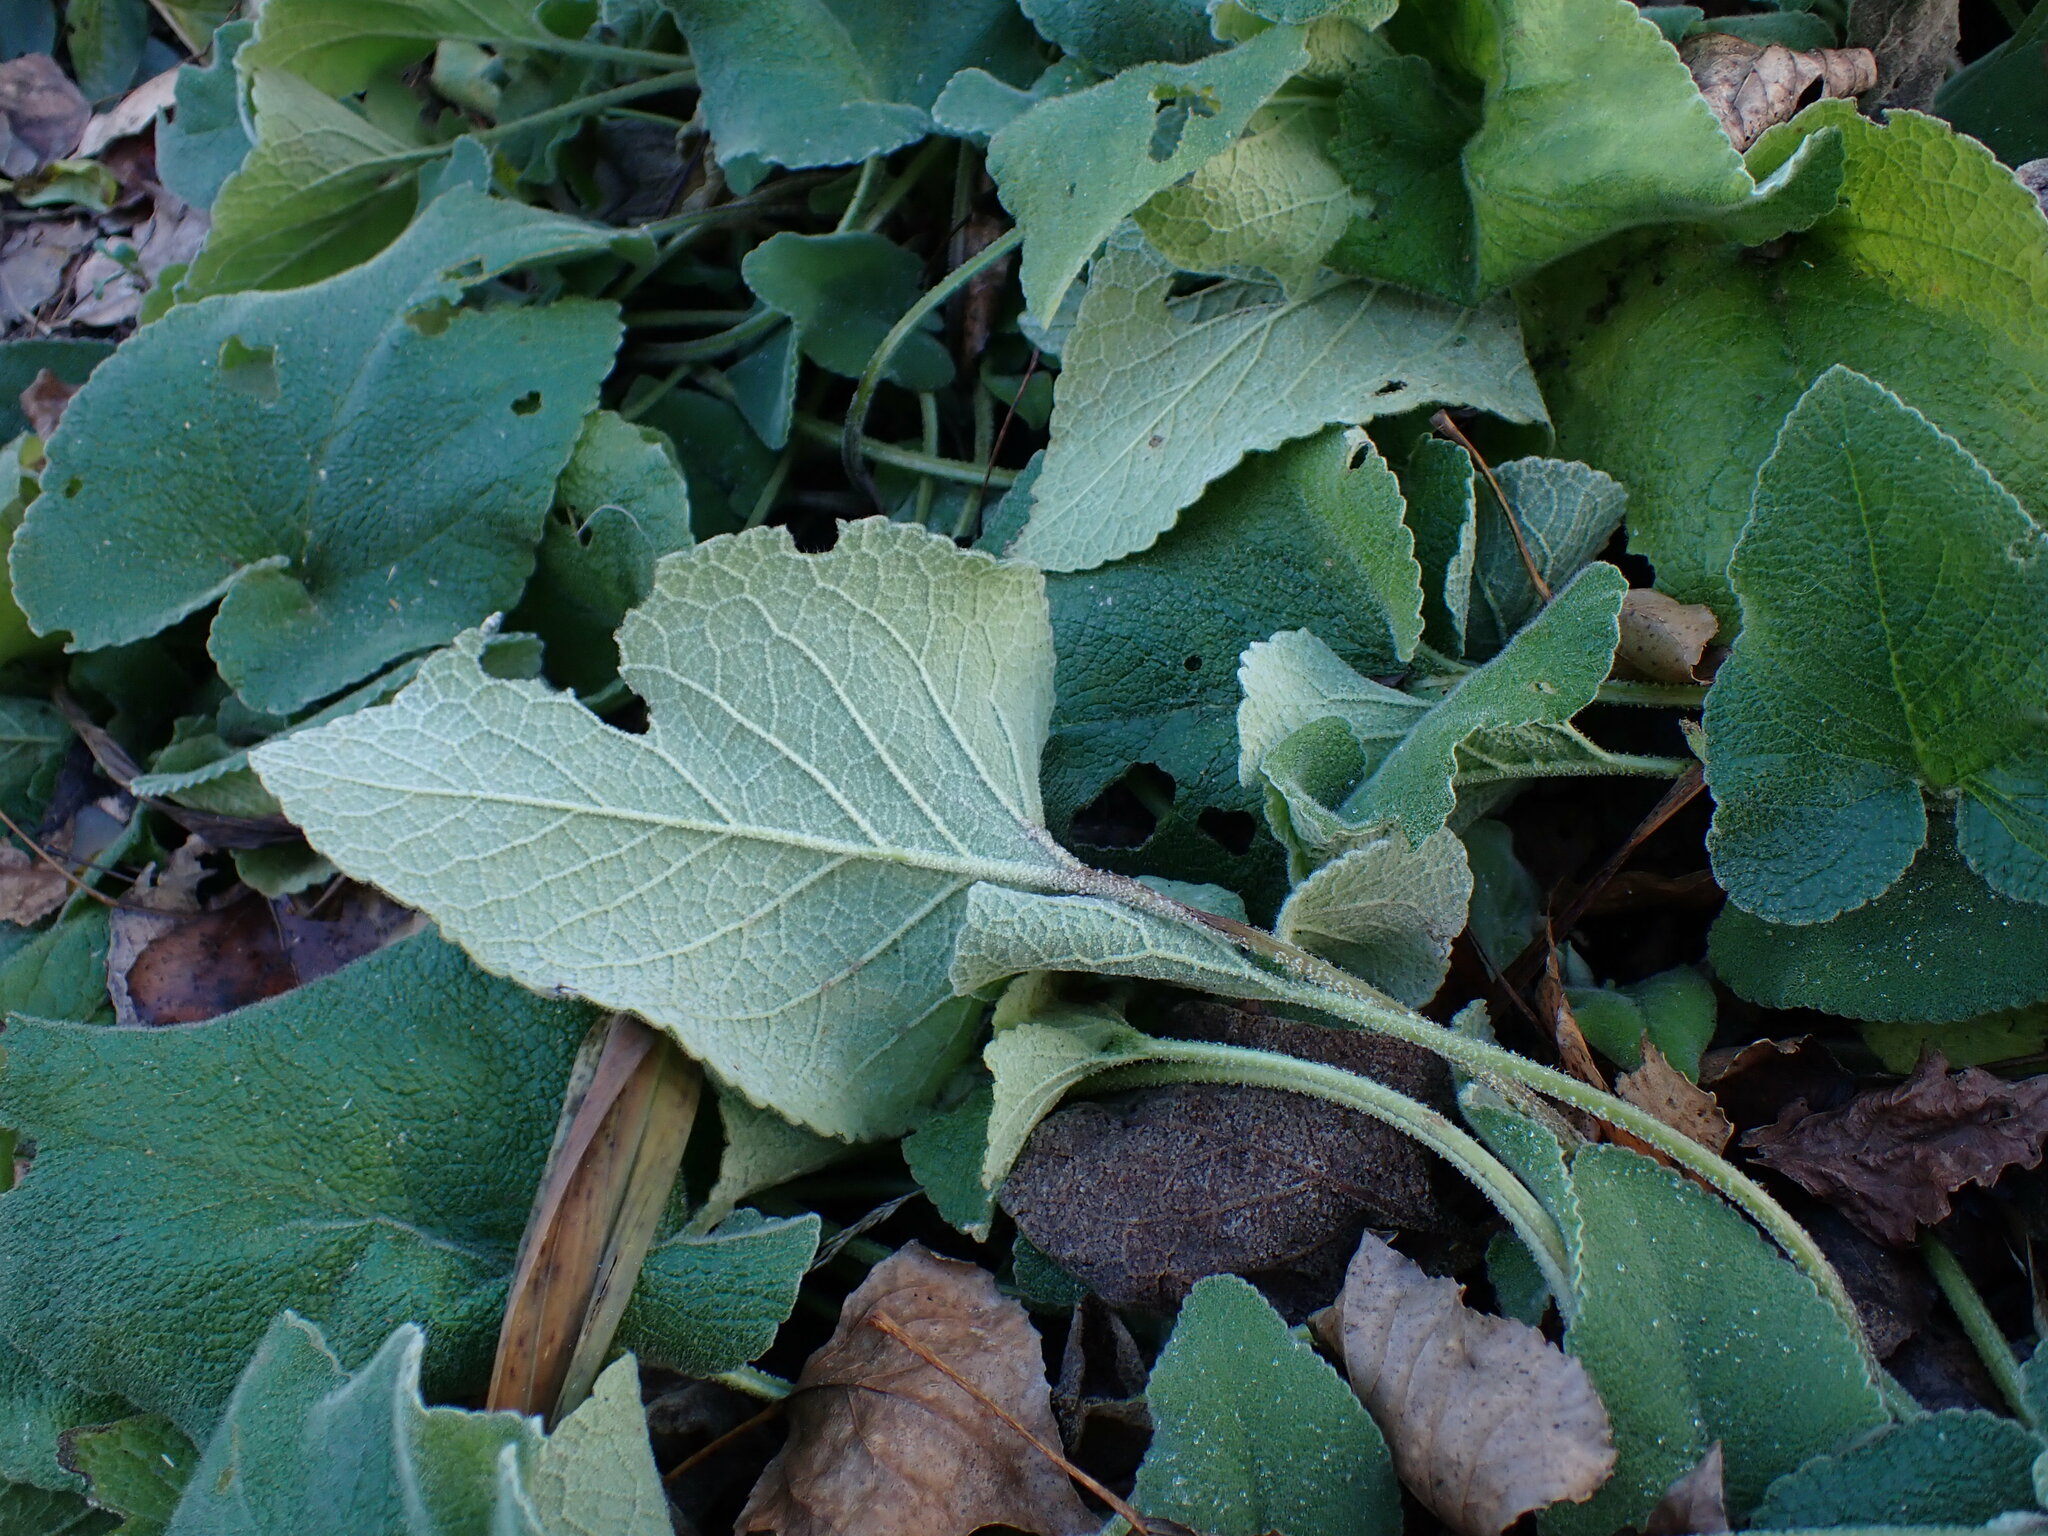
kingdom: Animalia
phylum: Arthropoda
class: Insecta
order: Hemiptera
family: Miridae
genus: Liocoris
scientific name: Liocoris tripustulatus
